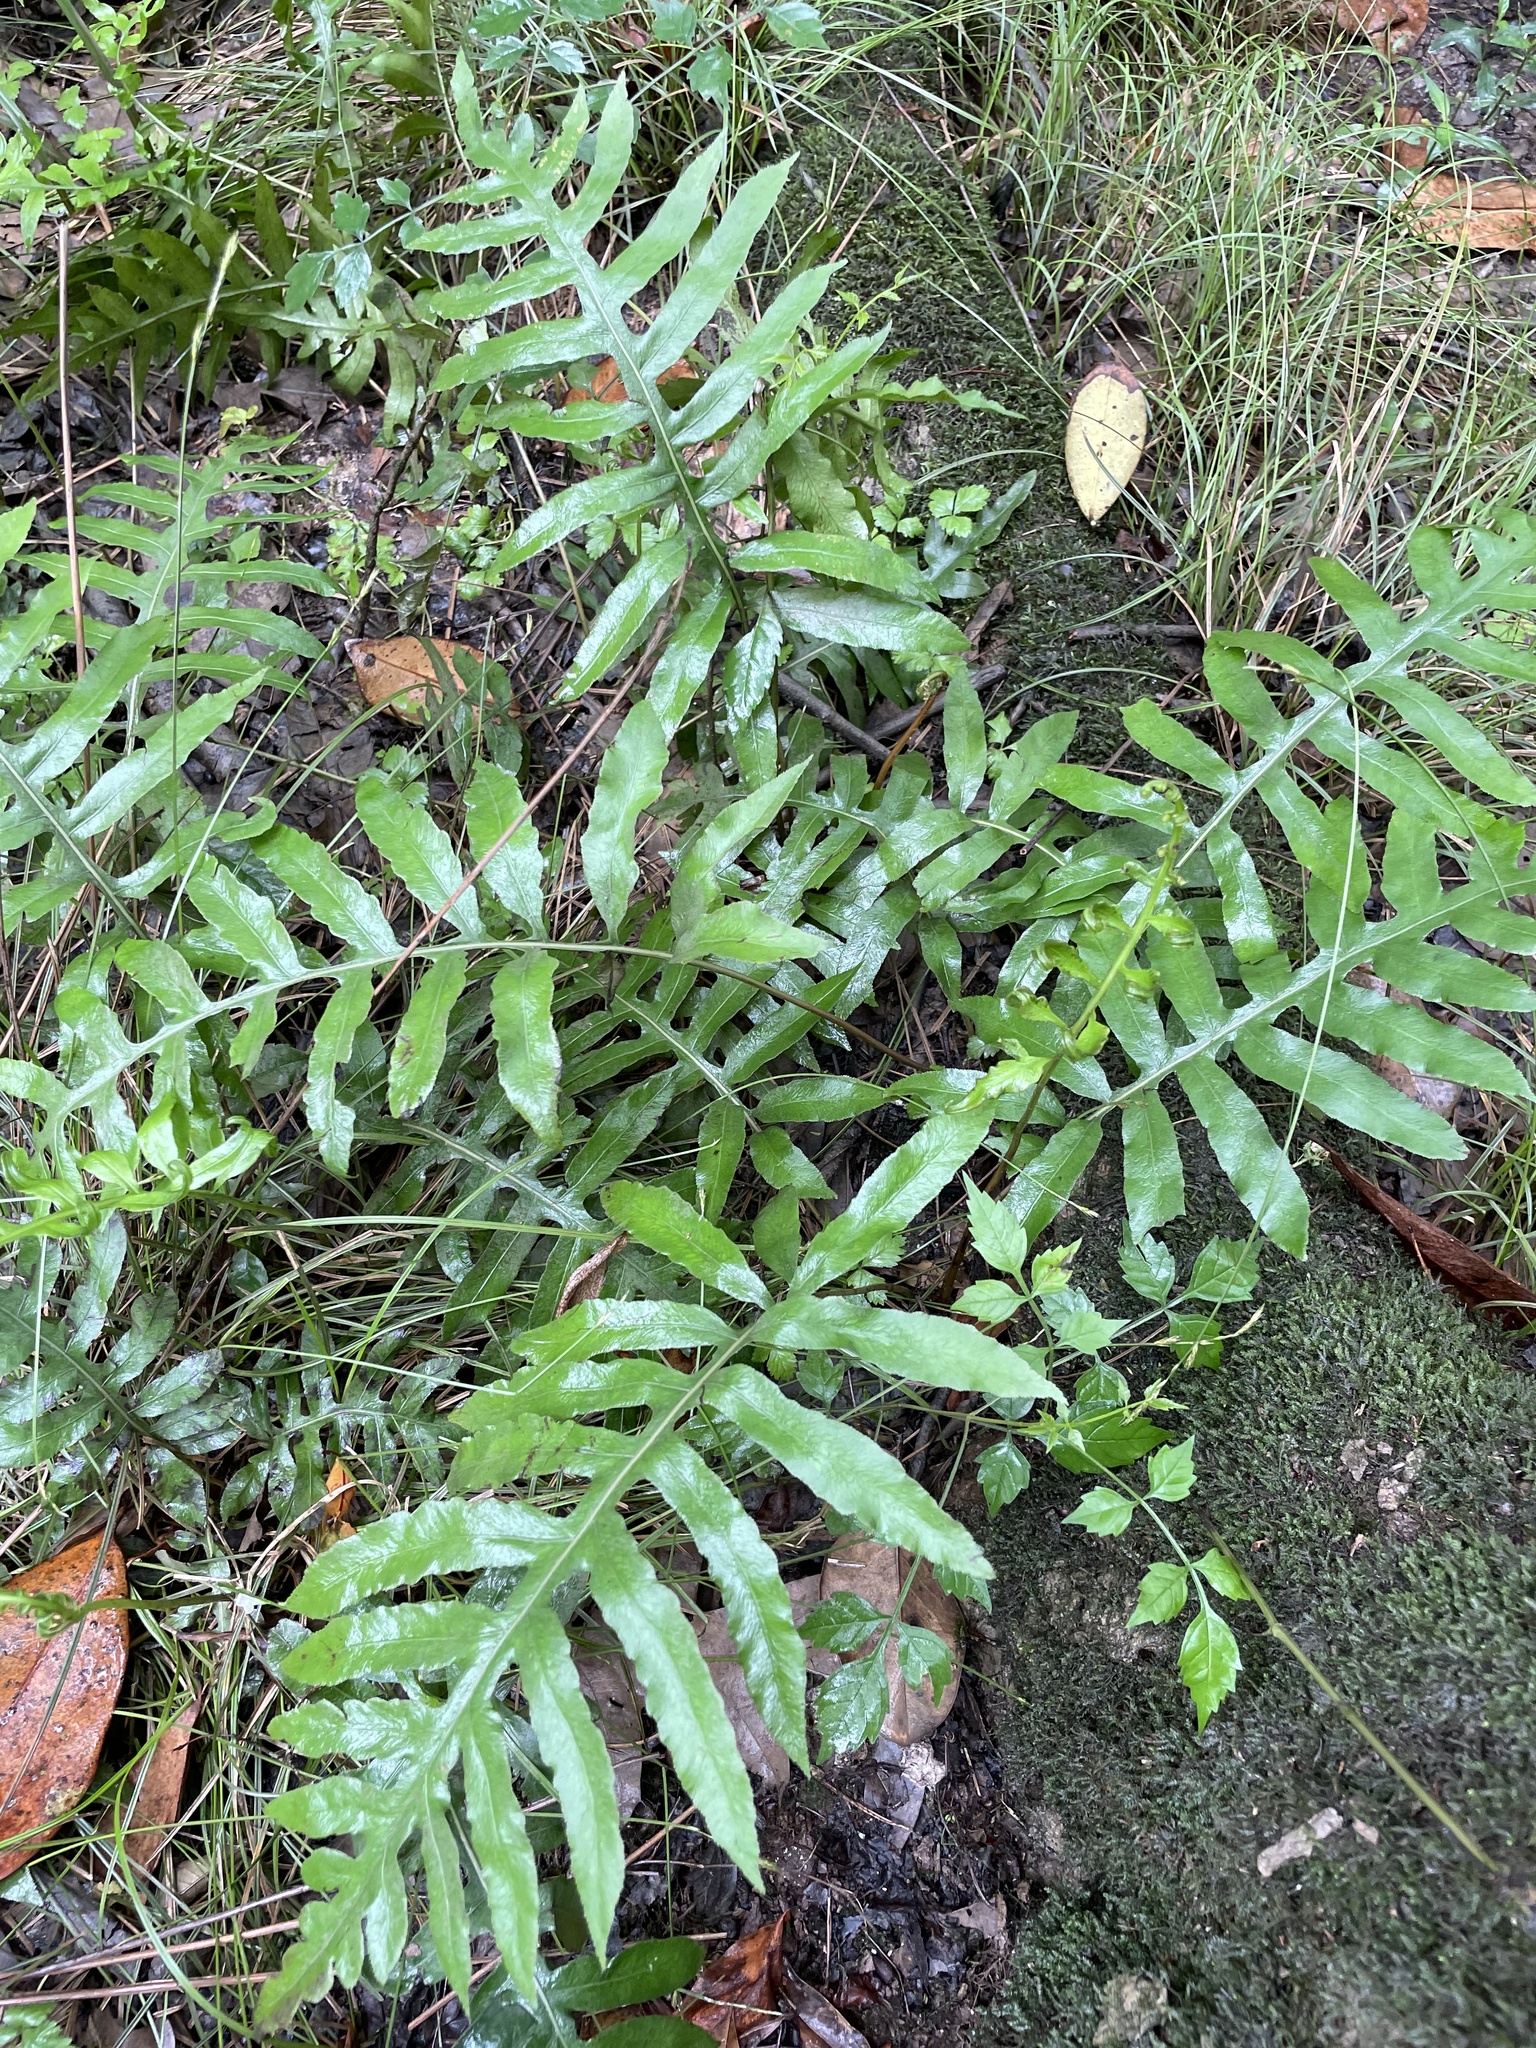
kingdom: Plantae
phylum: Tracheophyta
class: Polypodiopsida
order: Polypodiales
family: Blechnaceae
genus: Lorinseria
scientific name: Lorinseria areolata
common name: Dwarf chain fern
